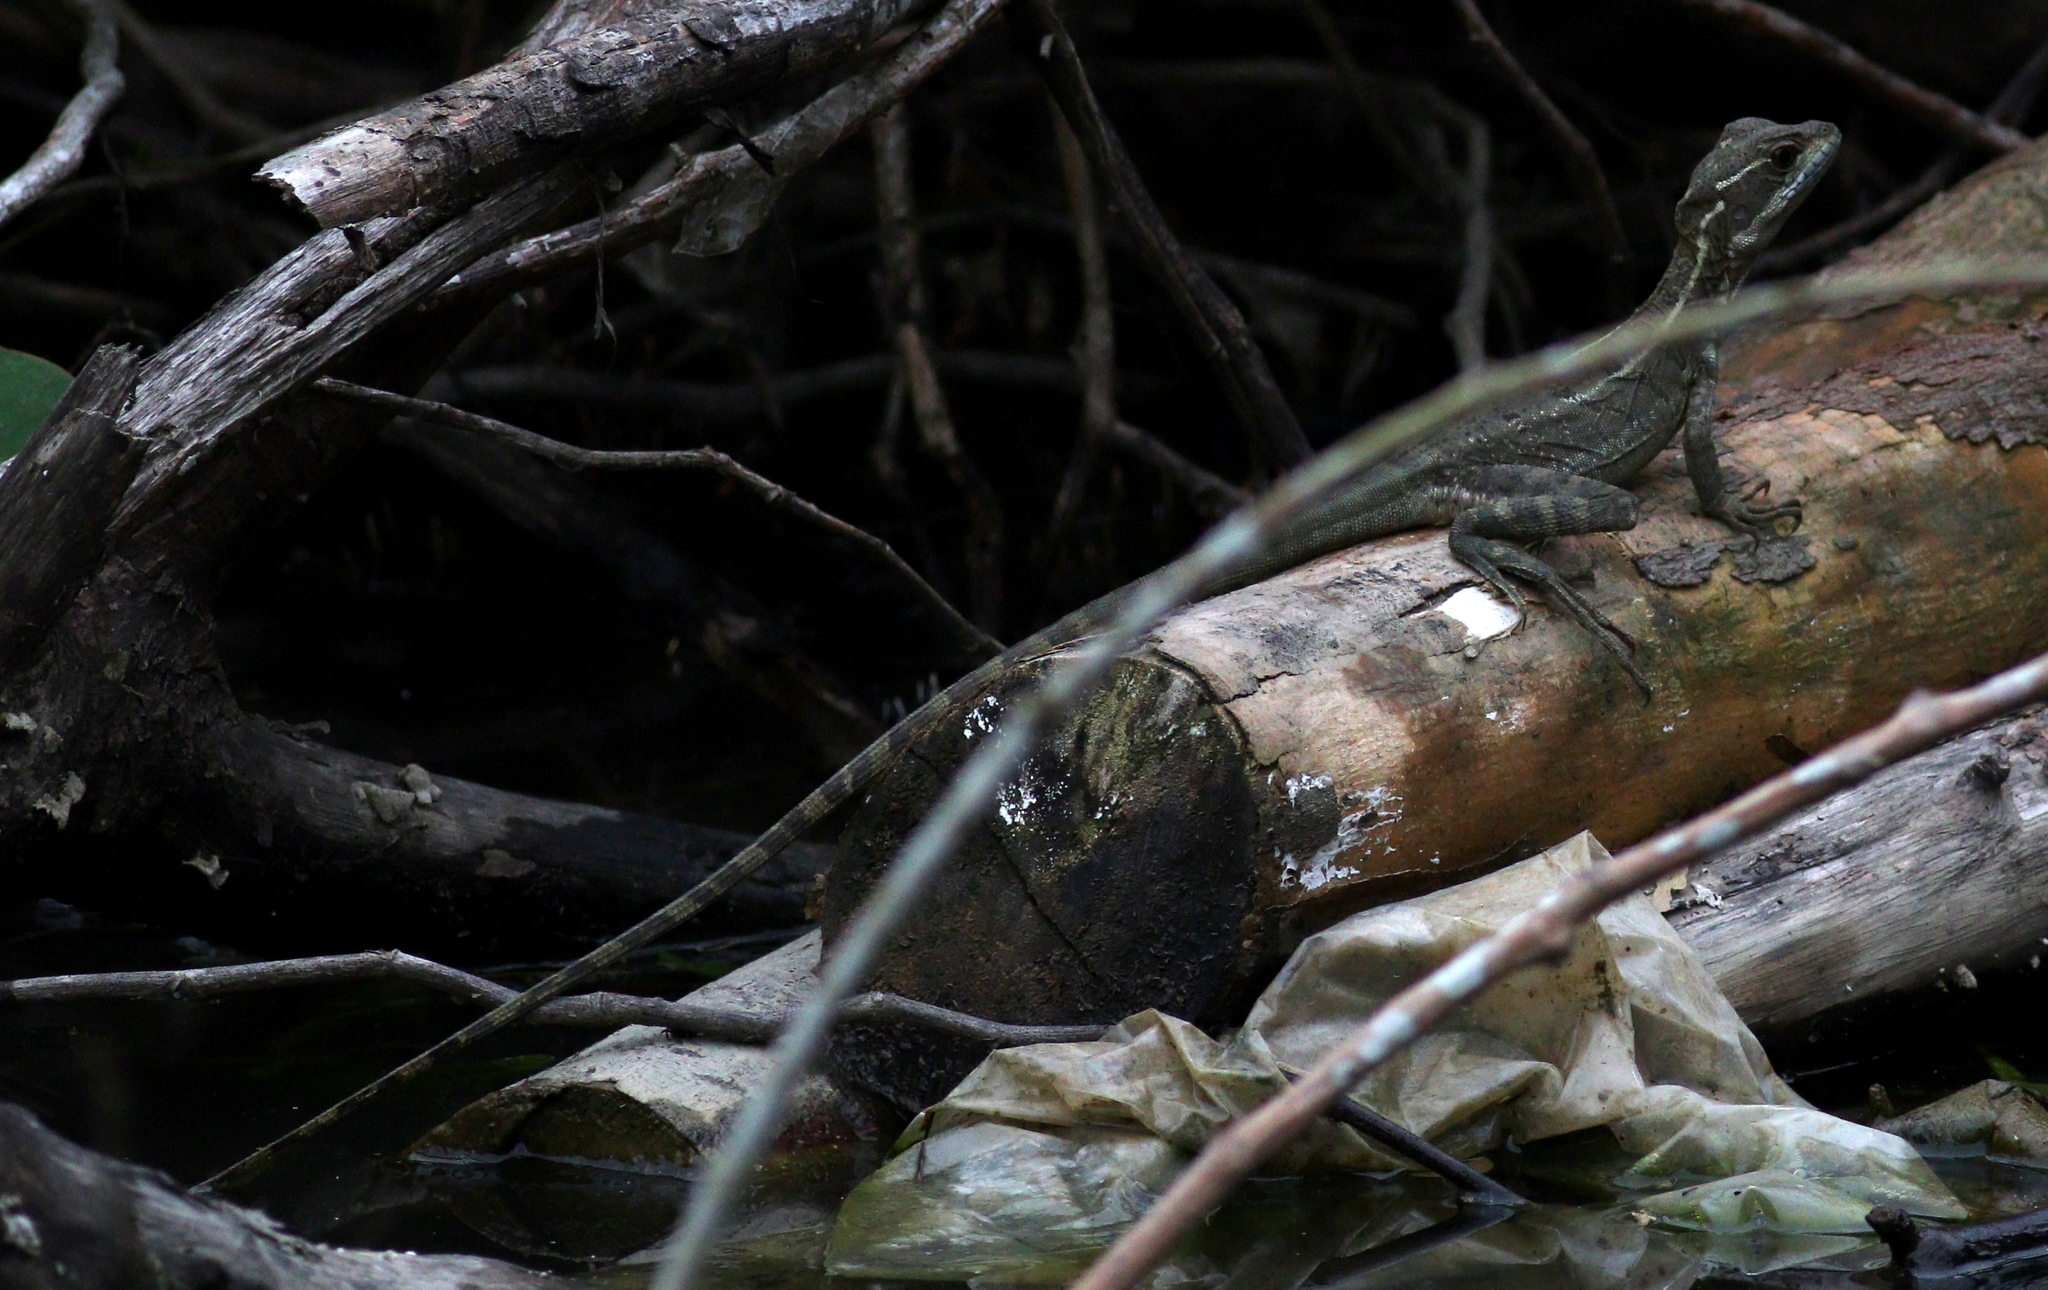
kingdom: Animalia
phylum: Chordata
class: Squamata
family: Corytophanidae
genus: Basiliscus
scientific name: Basiliscus basiliscus
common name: Common basilisk
